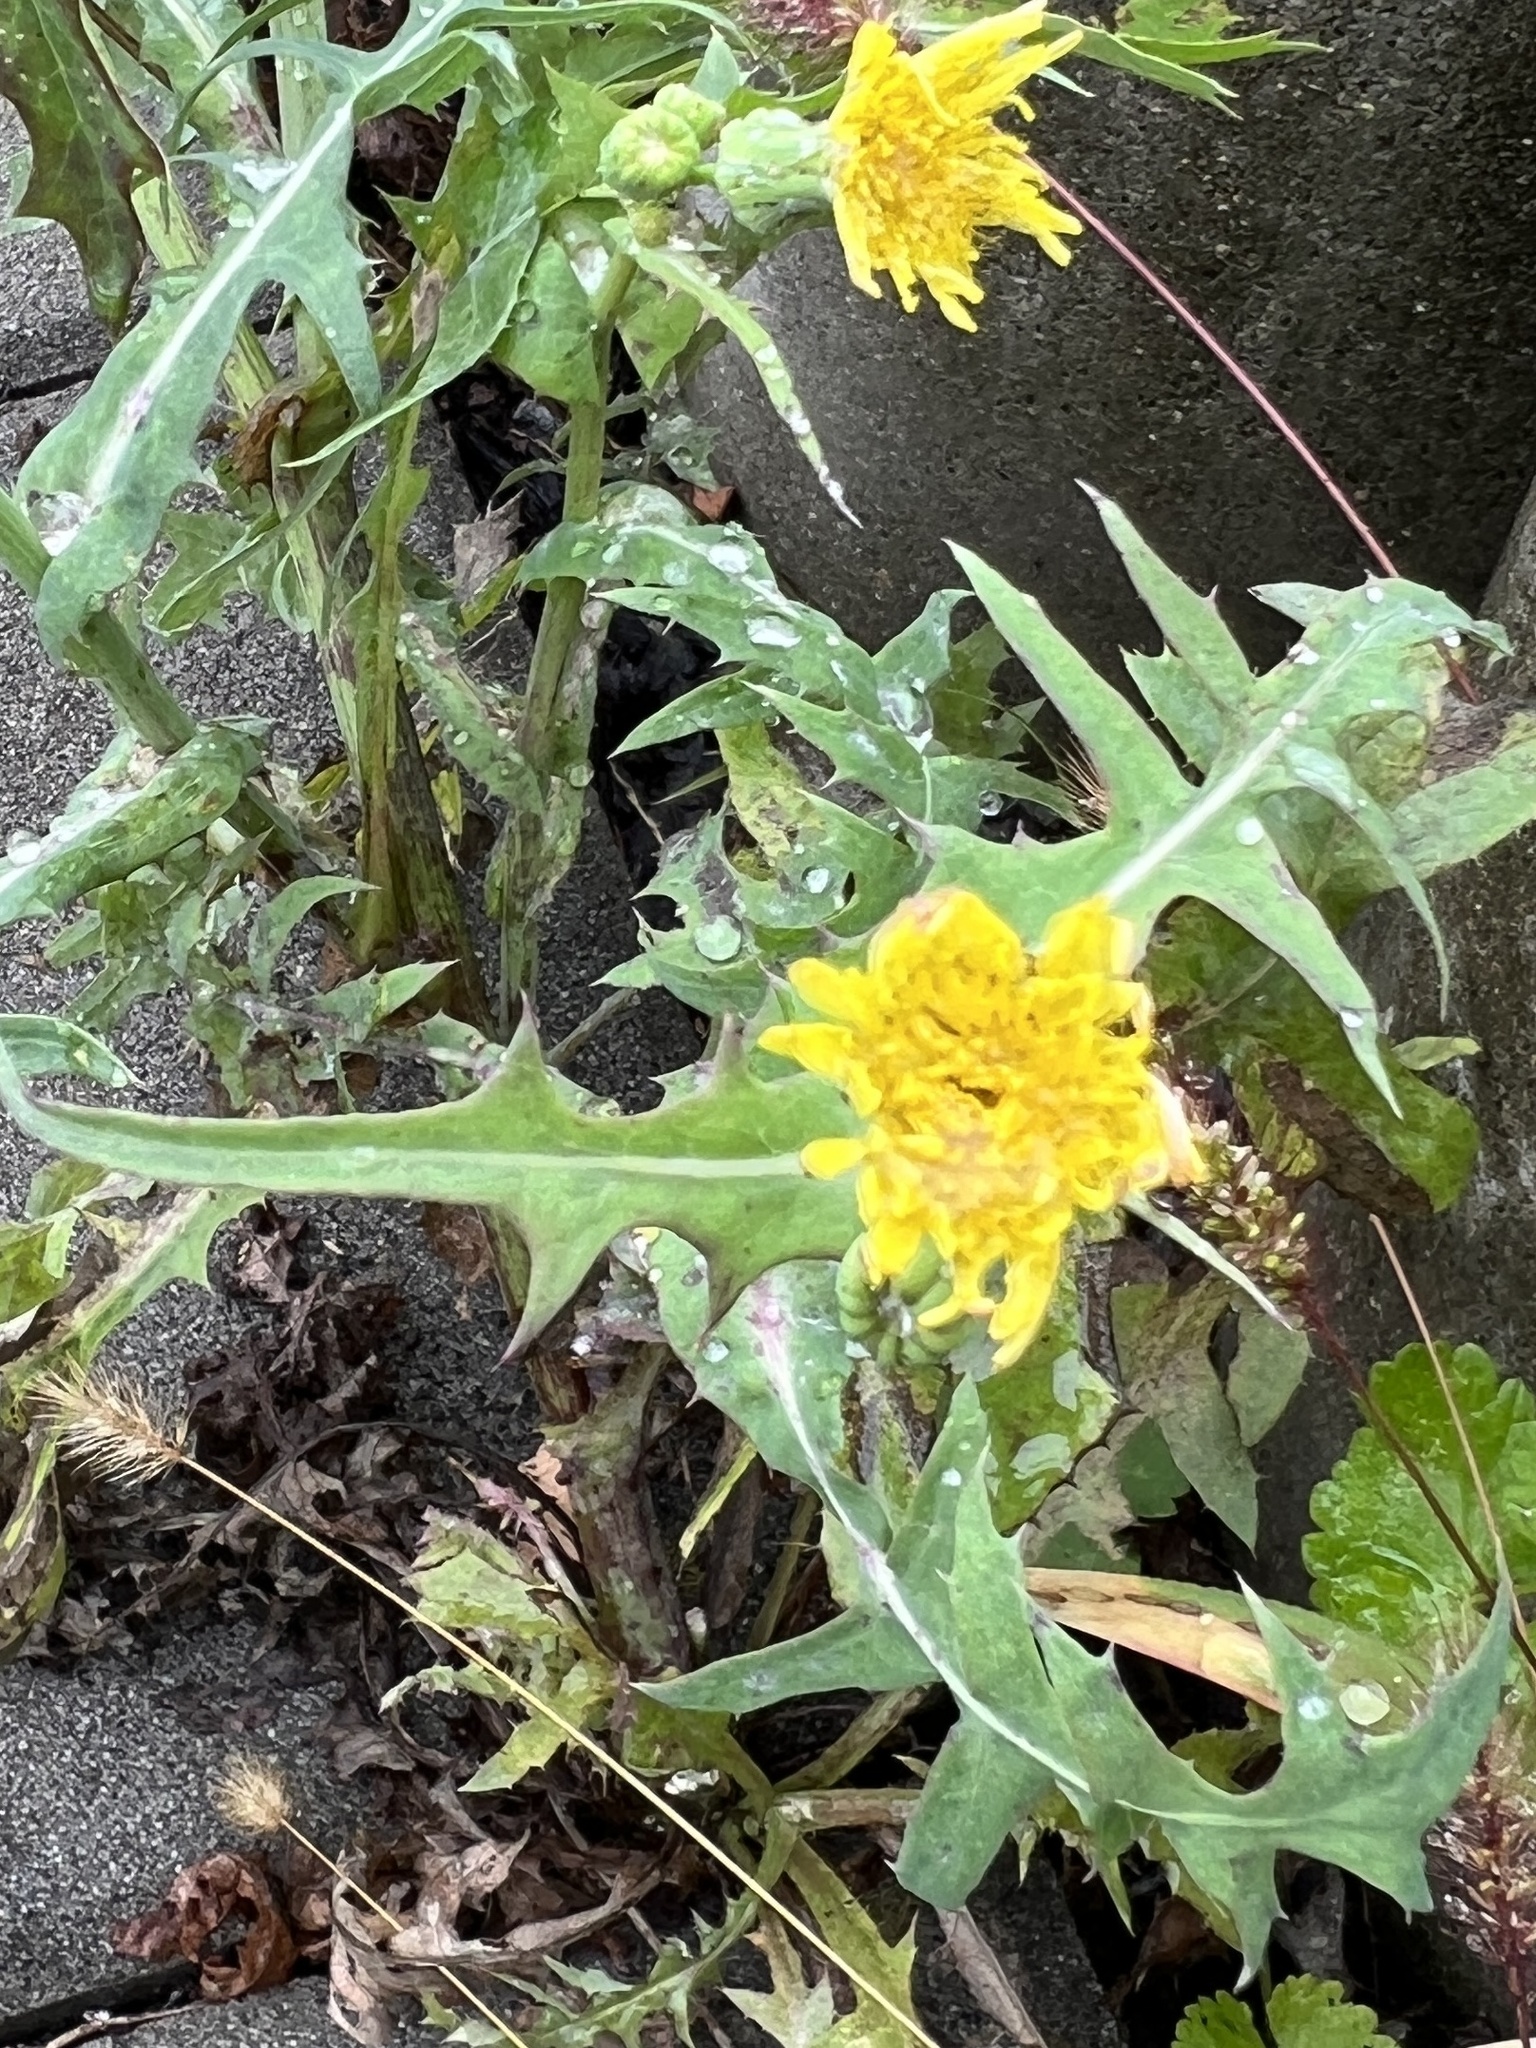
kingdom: Plantae
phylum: Tracheophyta
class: Magnoliopsida
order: Asterales
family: Asteraceae
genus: Sonchus
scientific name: Sonchus oleraceus
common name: Common sowthistle
